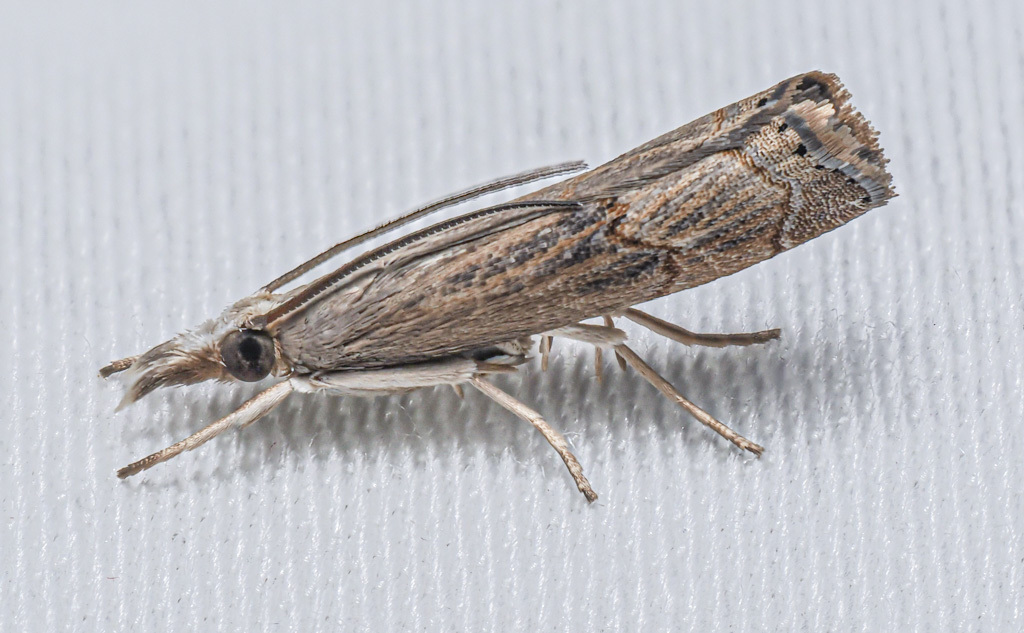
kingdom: Animalia
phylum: Arthropoda
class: Insecta
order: Lepidoptera
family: Crambidae
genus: Parapediasia
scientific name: Parapediasia teterellus
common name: Bluegrass webworm moth
